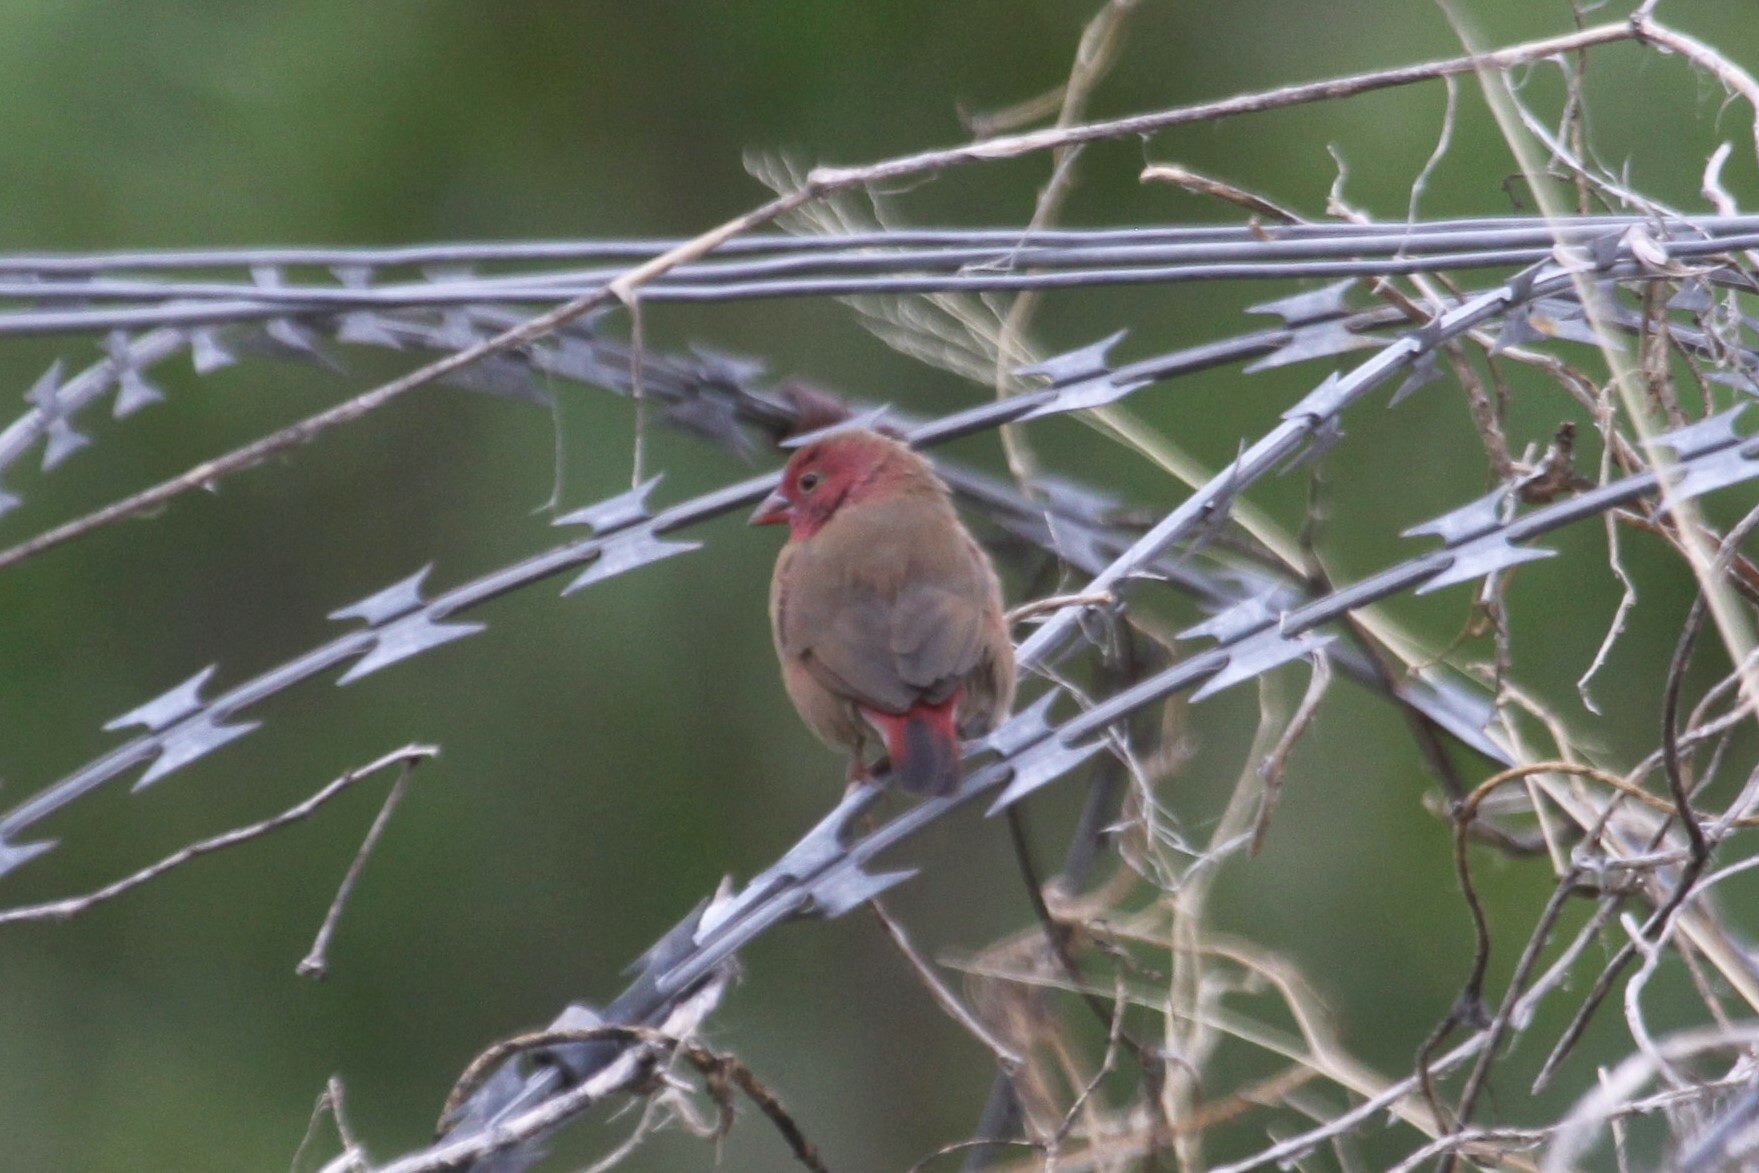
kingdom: Animalia
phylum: Chordata
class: Aves
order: Passeriformes
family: Estrildidae
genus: Lagonosticta
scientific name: Lagonosticta senegala
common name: Red-billed firefinch
